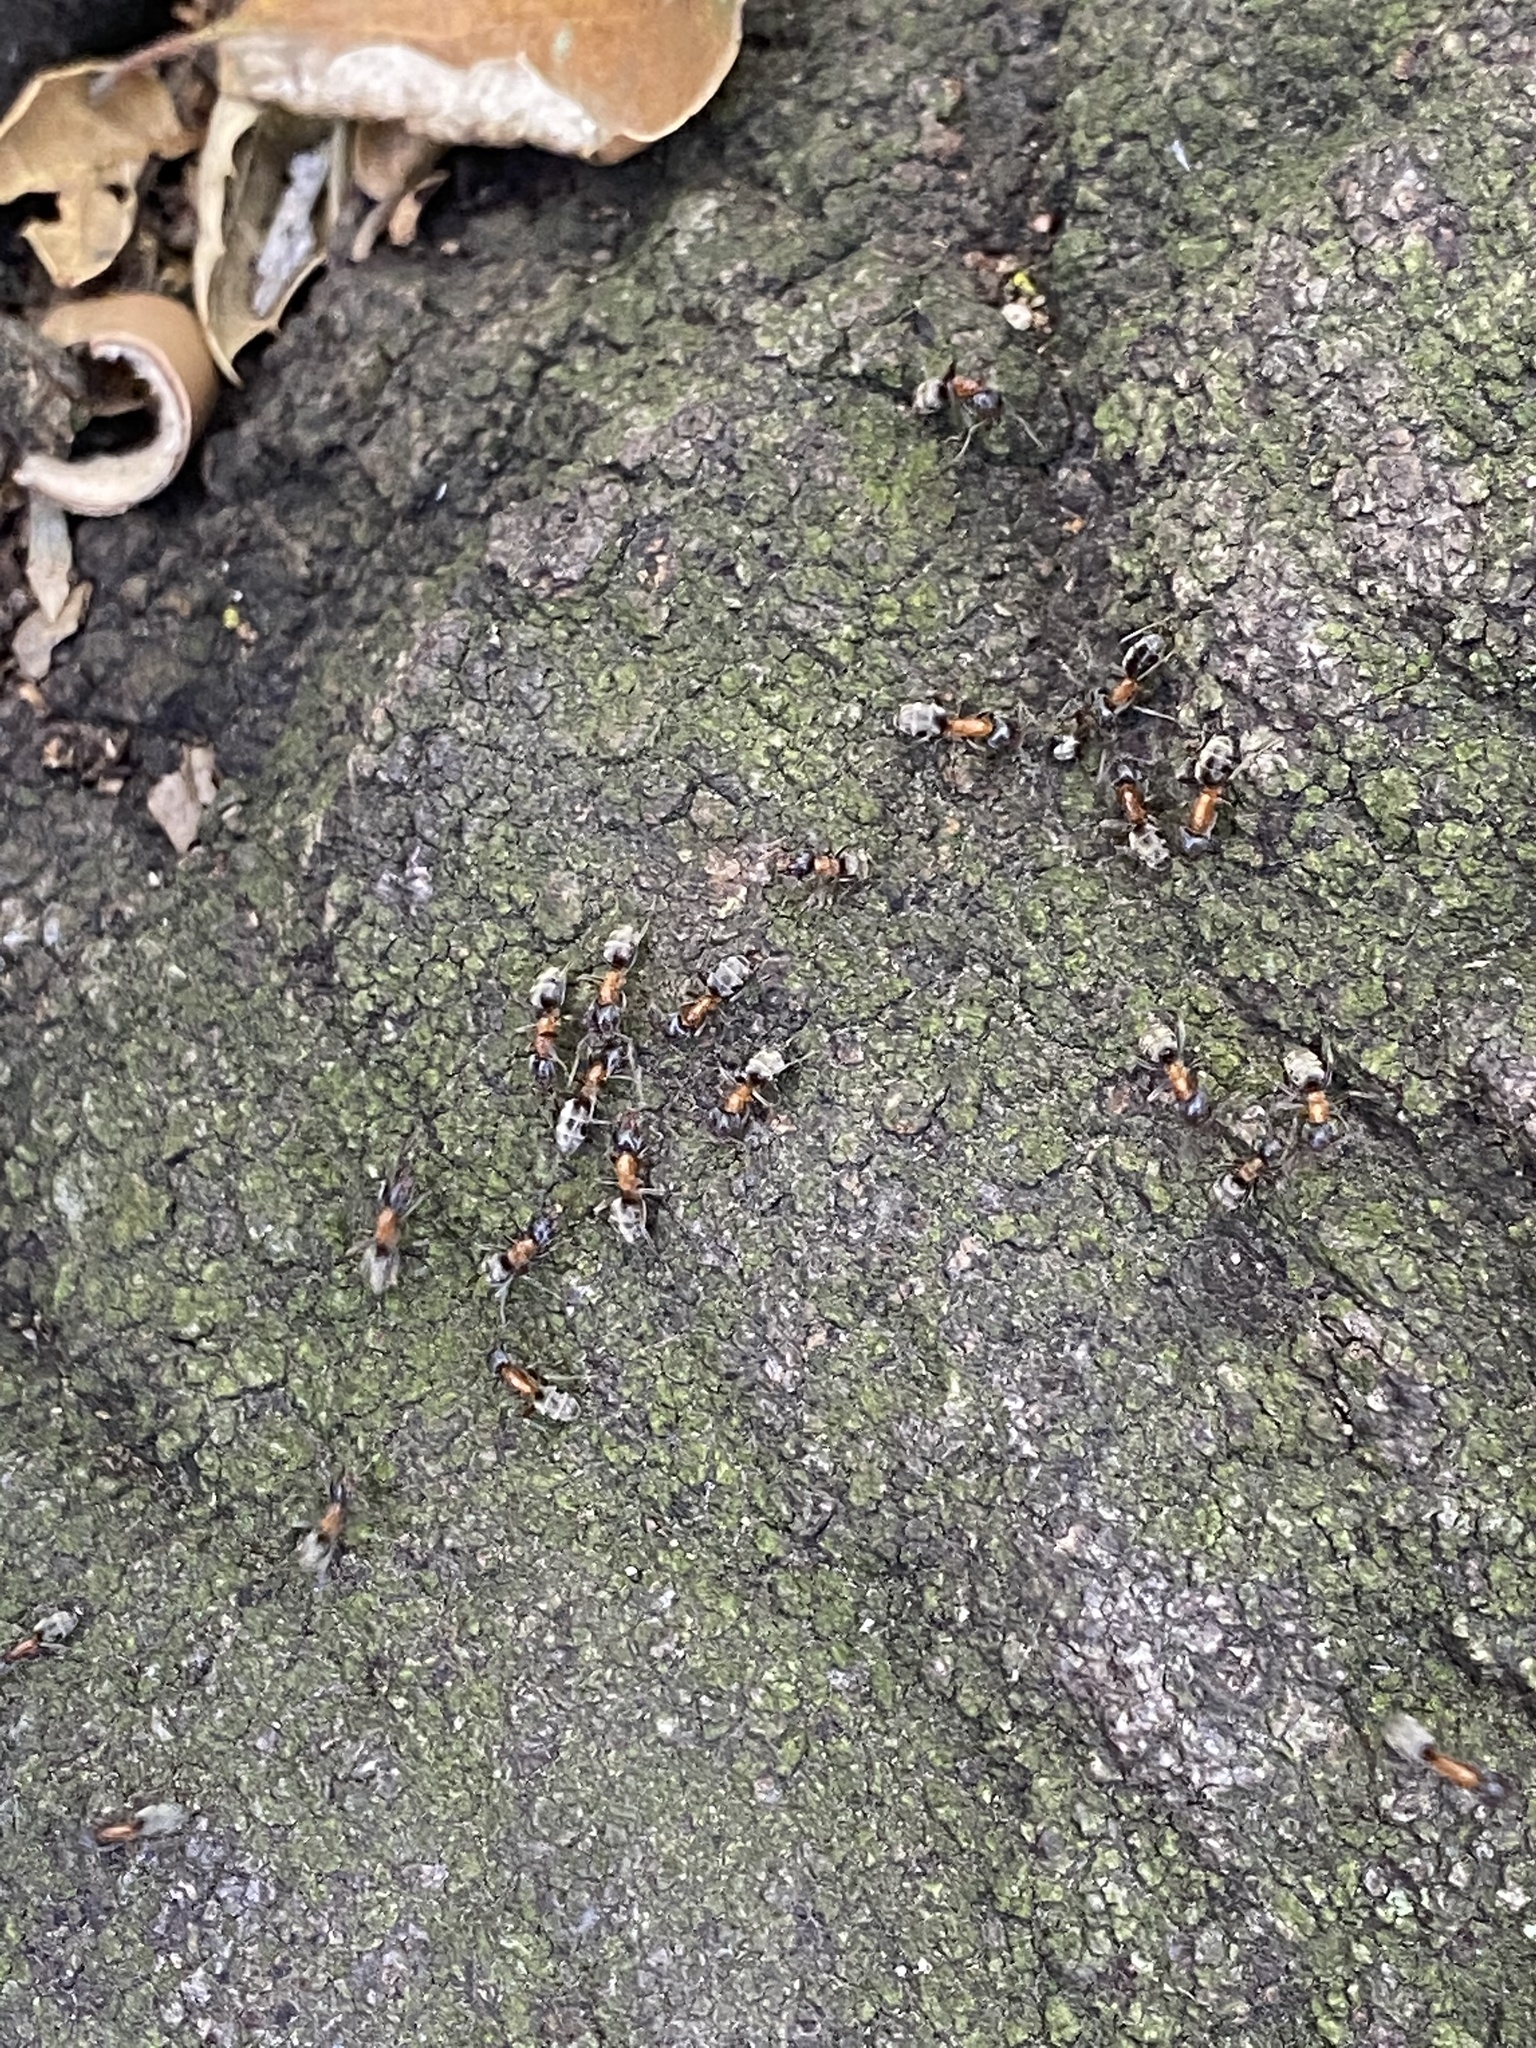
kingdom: Animalia
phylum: Arthropoda
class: Insecta
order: Hymenoptera
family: Formicidae
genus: Liometopum
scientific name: Liometopum occidentale
